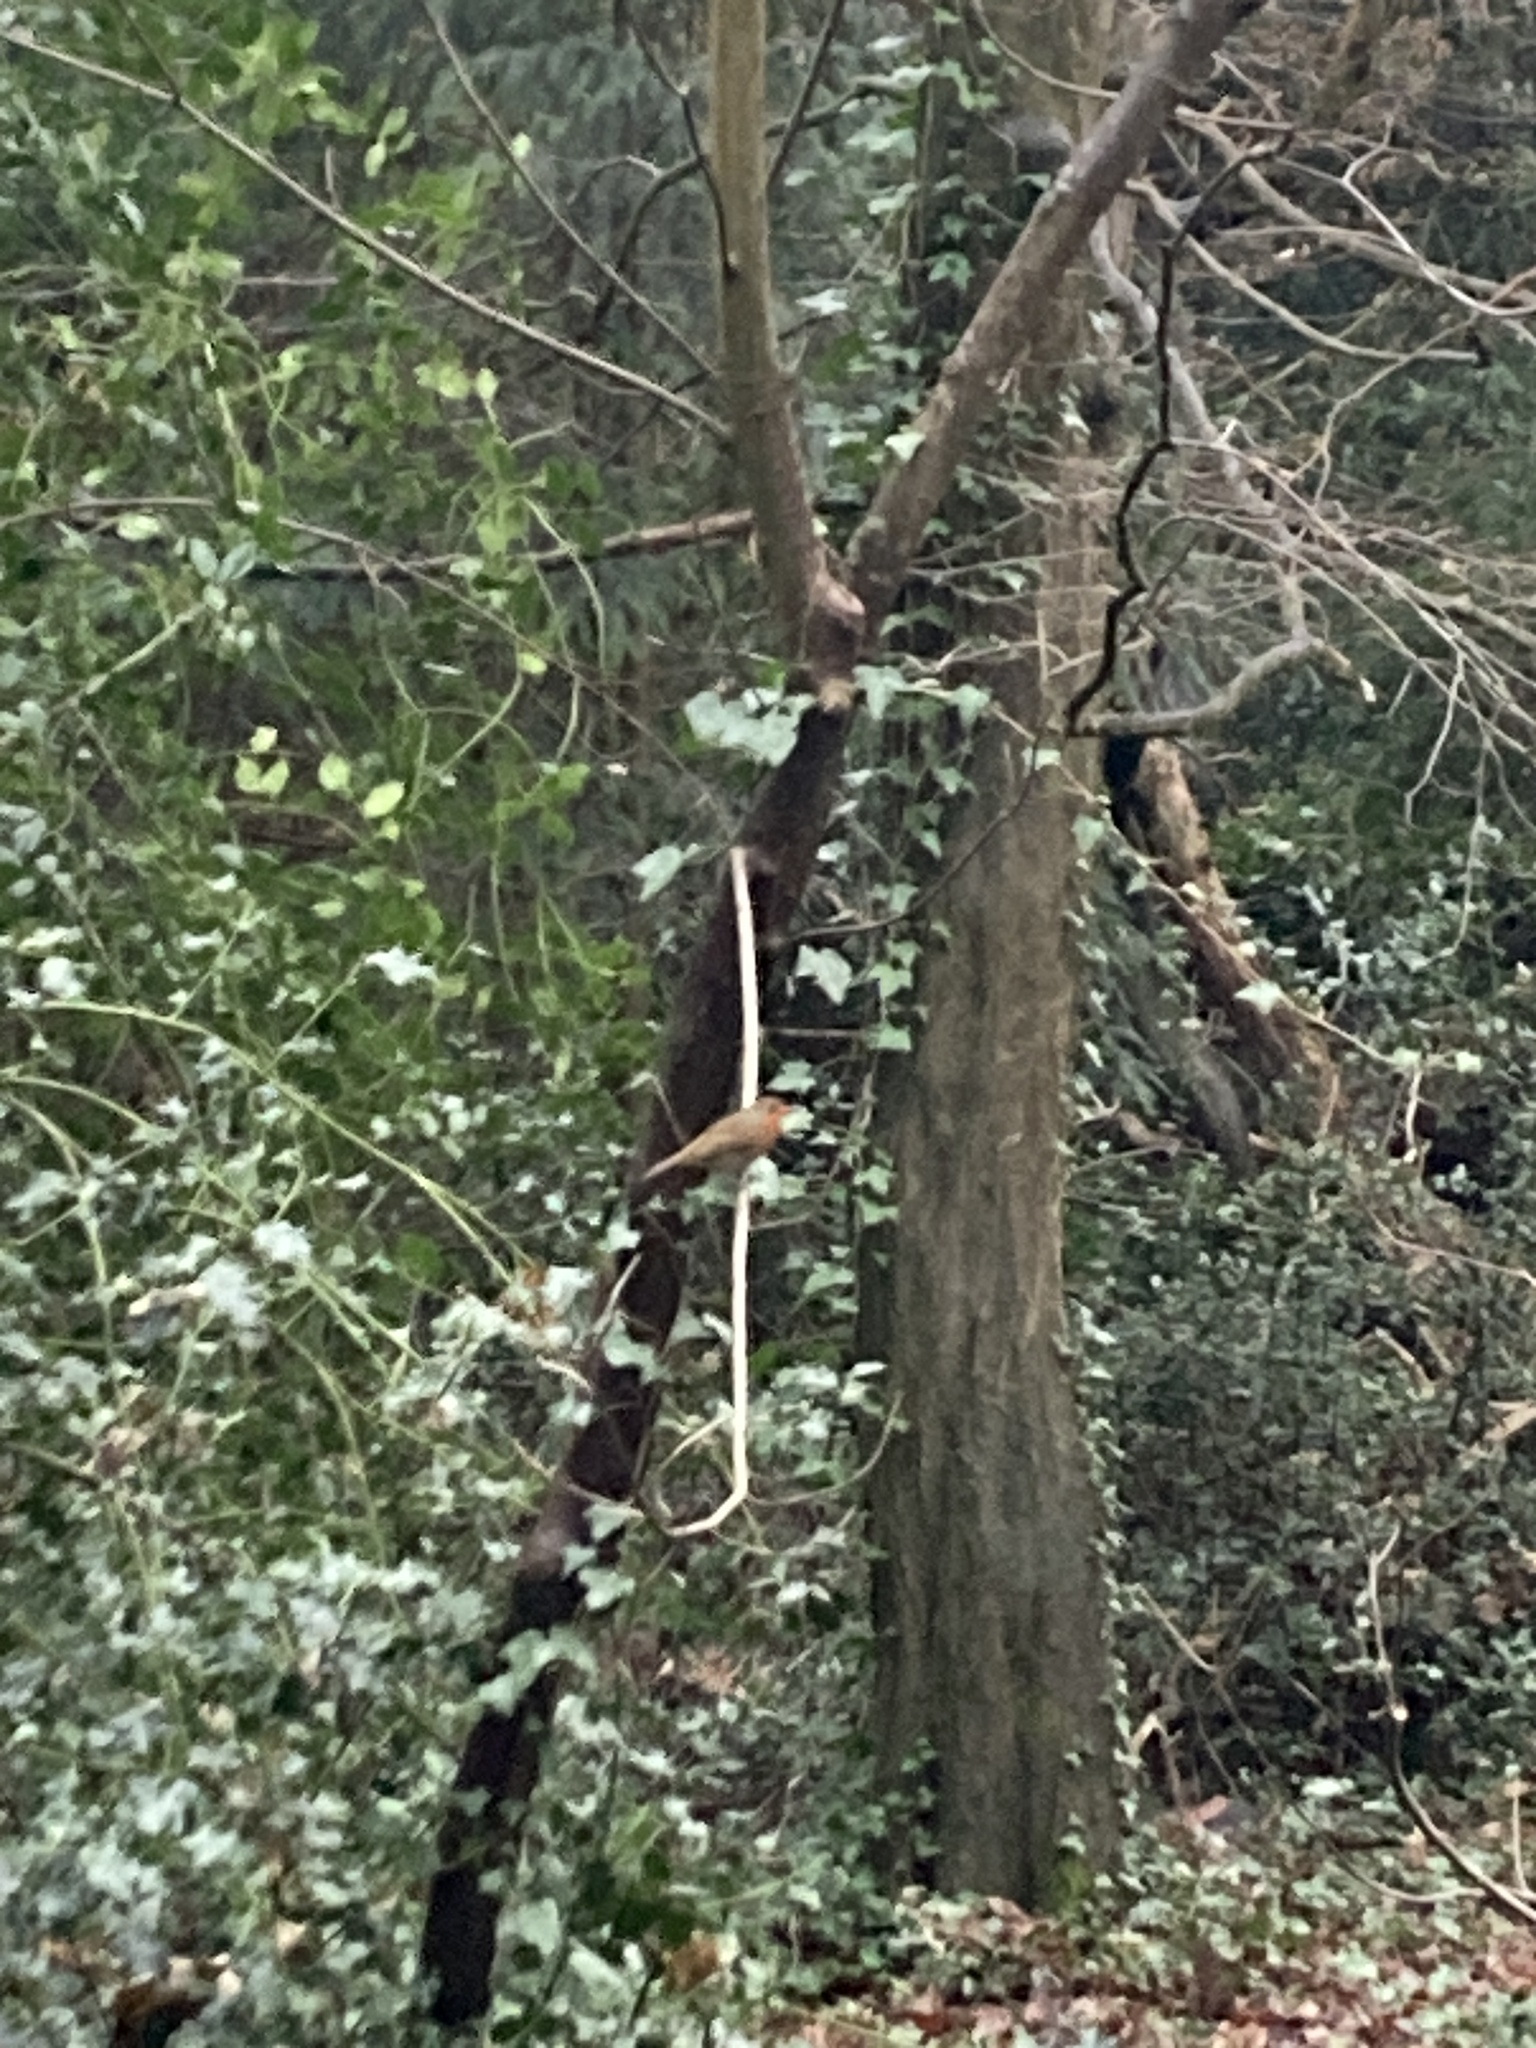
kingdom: Animalia
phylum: Chordata
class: Aves
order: Passeriformes
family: Muscicapidae
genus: Erithacus
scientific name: Erithacus rubecula
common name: European robin
